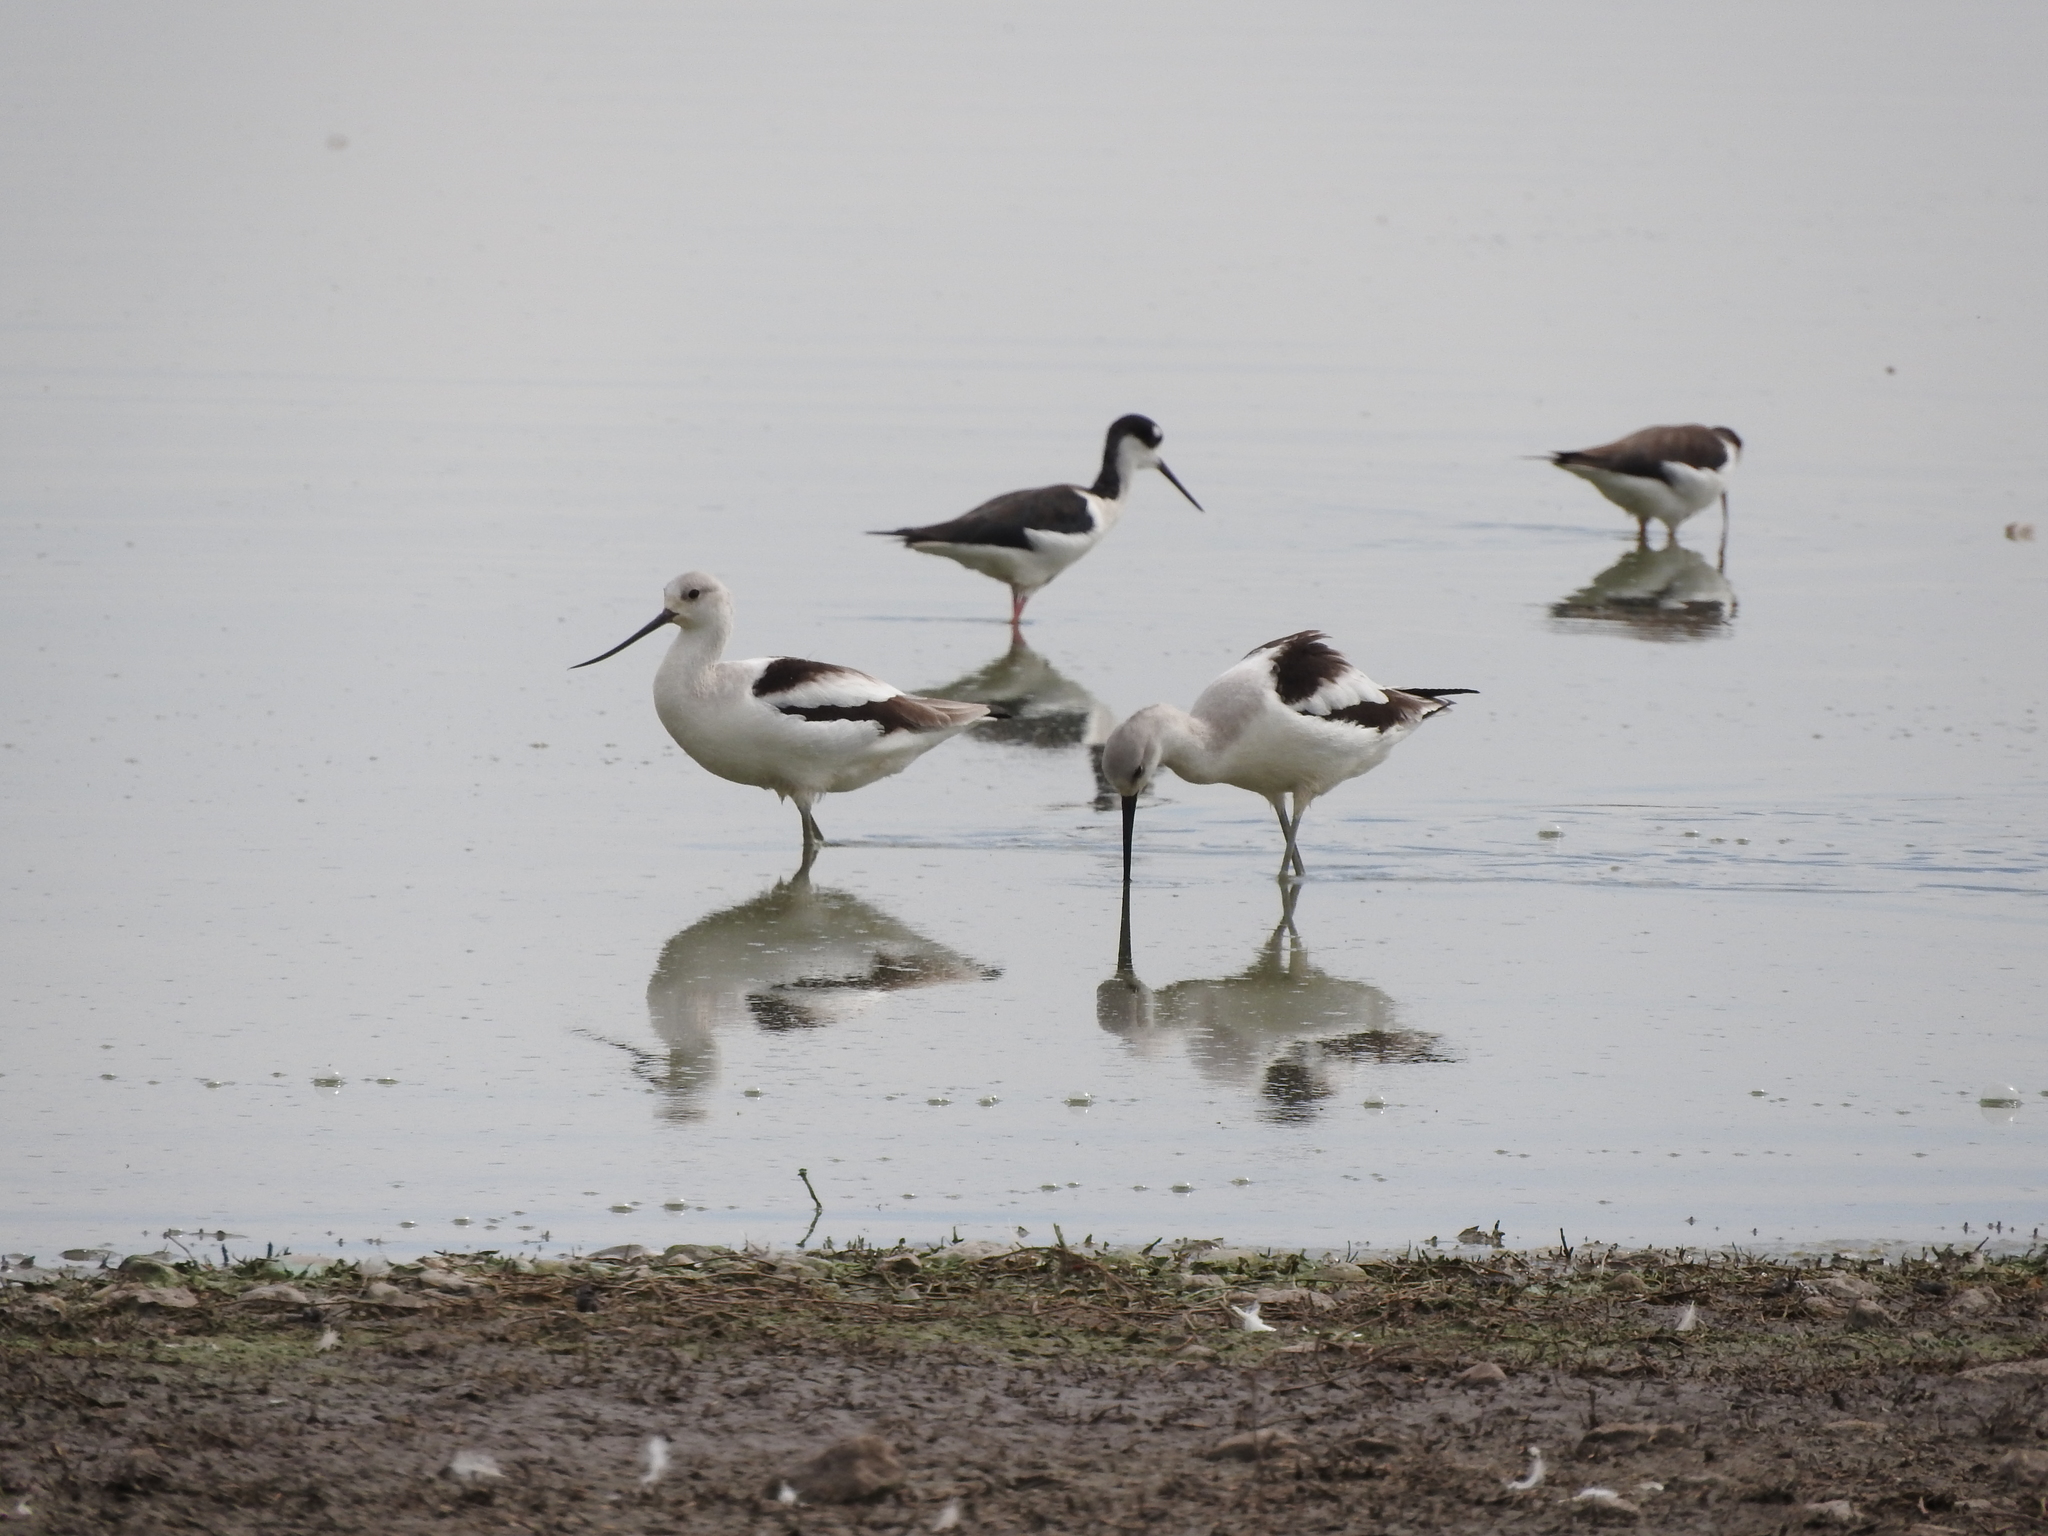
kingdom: Animalia
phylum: Chordata
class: Aves
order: Charadriiformes
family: Recurvirostridae
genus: Recurvirostra
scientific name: Recurvirostra americana
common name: American avocet
